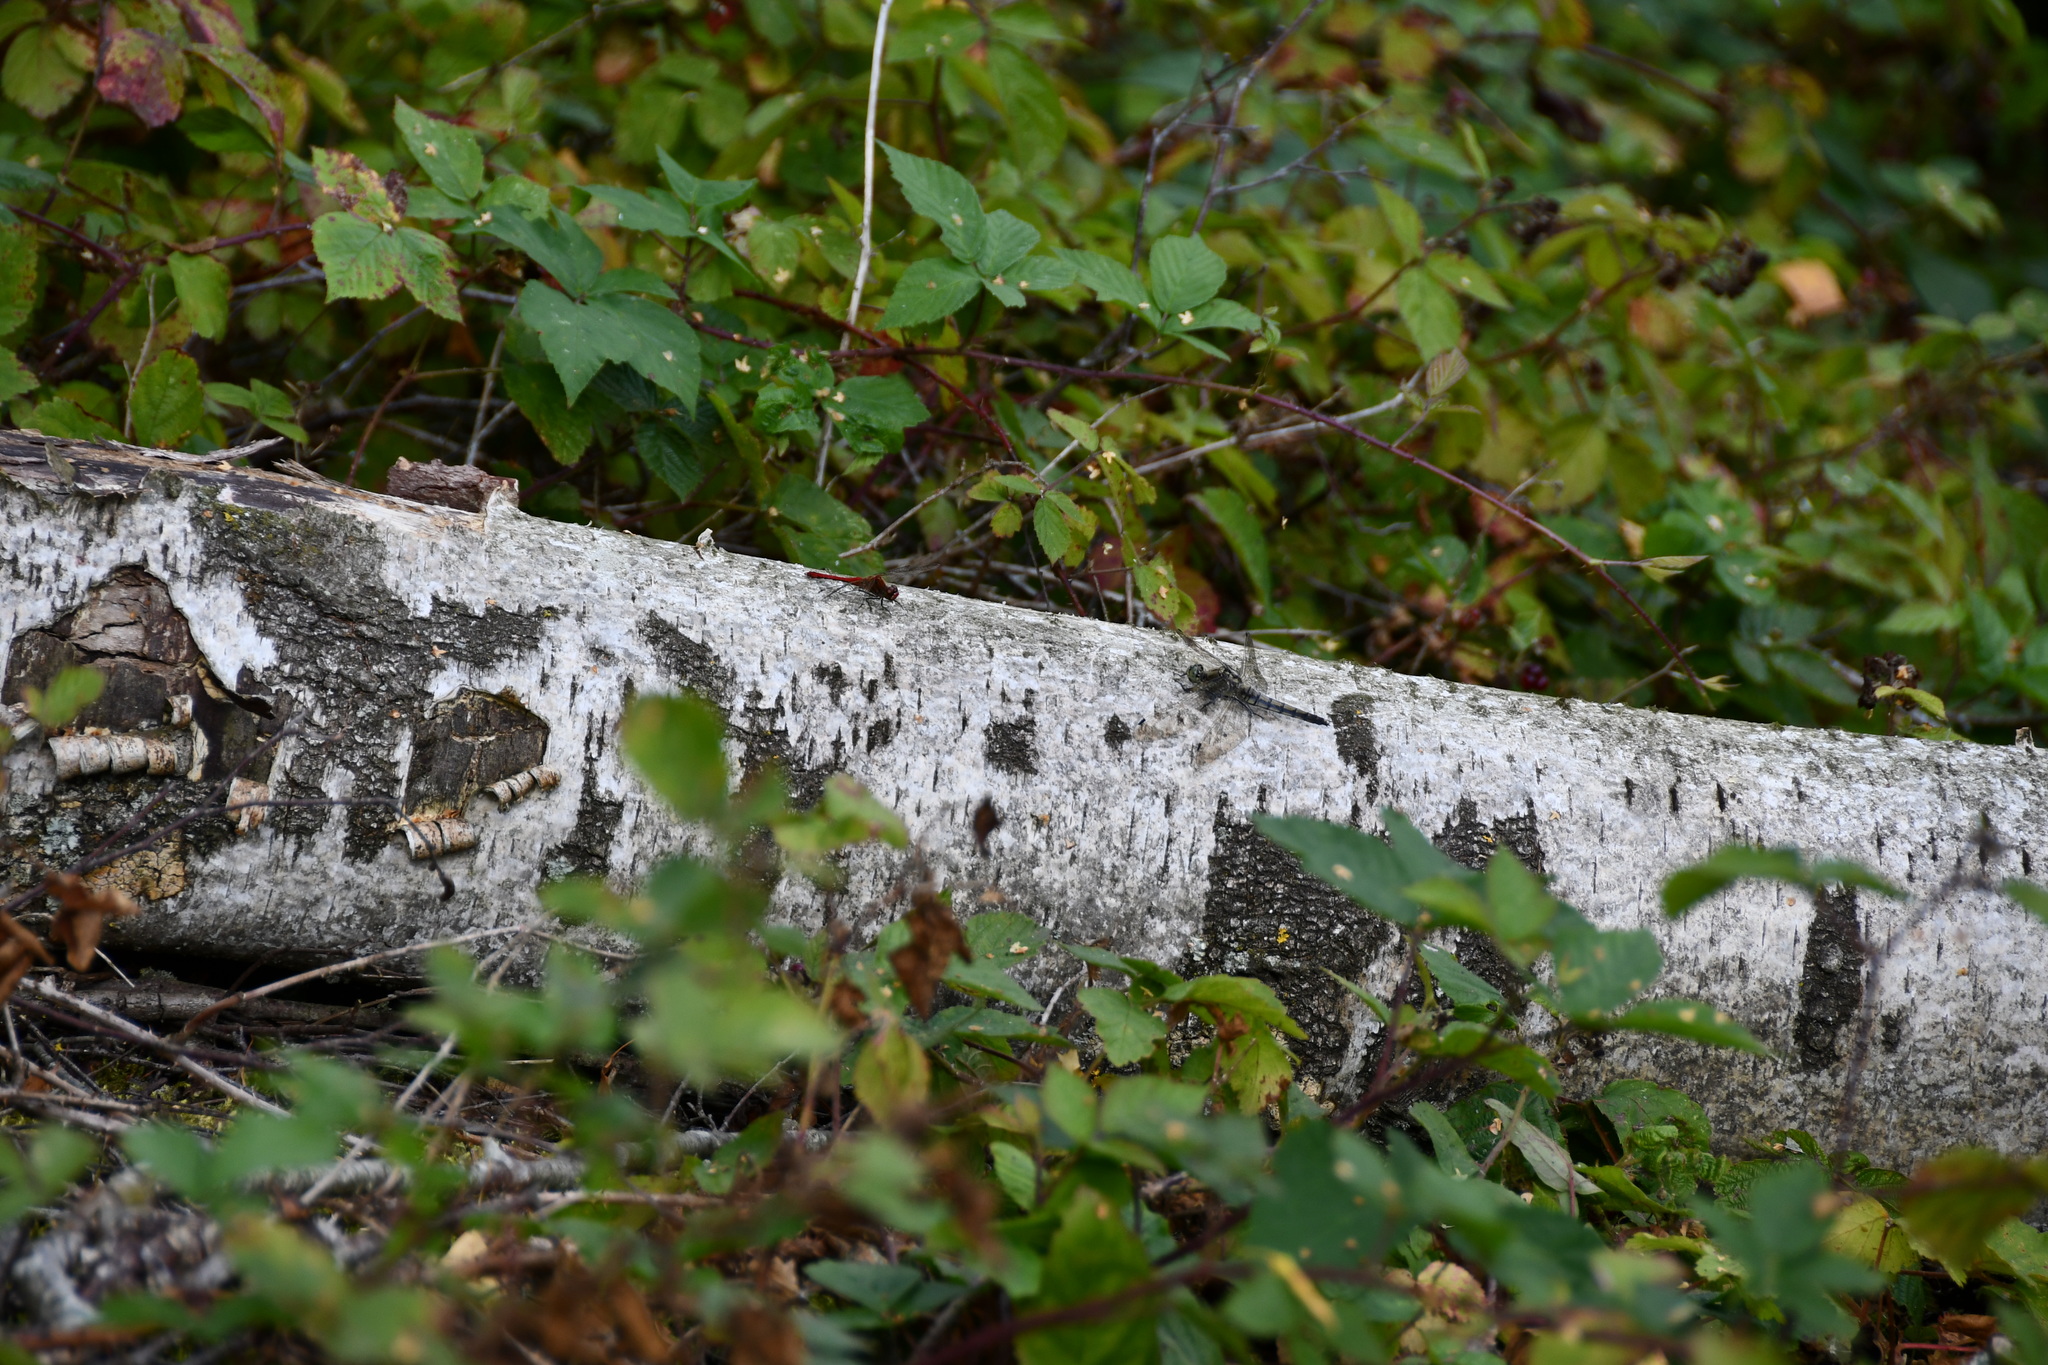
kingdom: Animalia
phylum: Arthropoda
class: Insecta
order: Odonata
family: Libellulidae
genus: Orthetrum
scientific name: Orthetrum cancellatum
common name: Black-tailed skimmer
